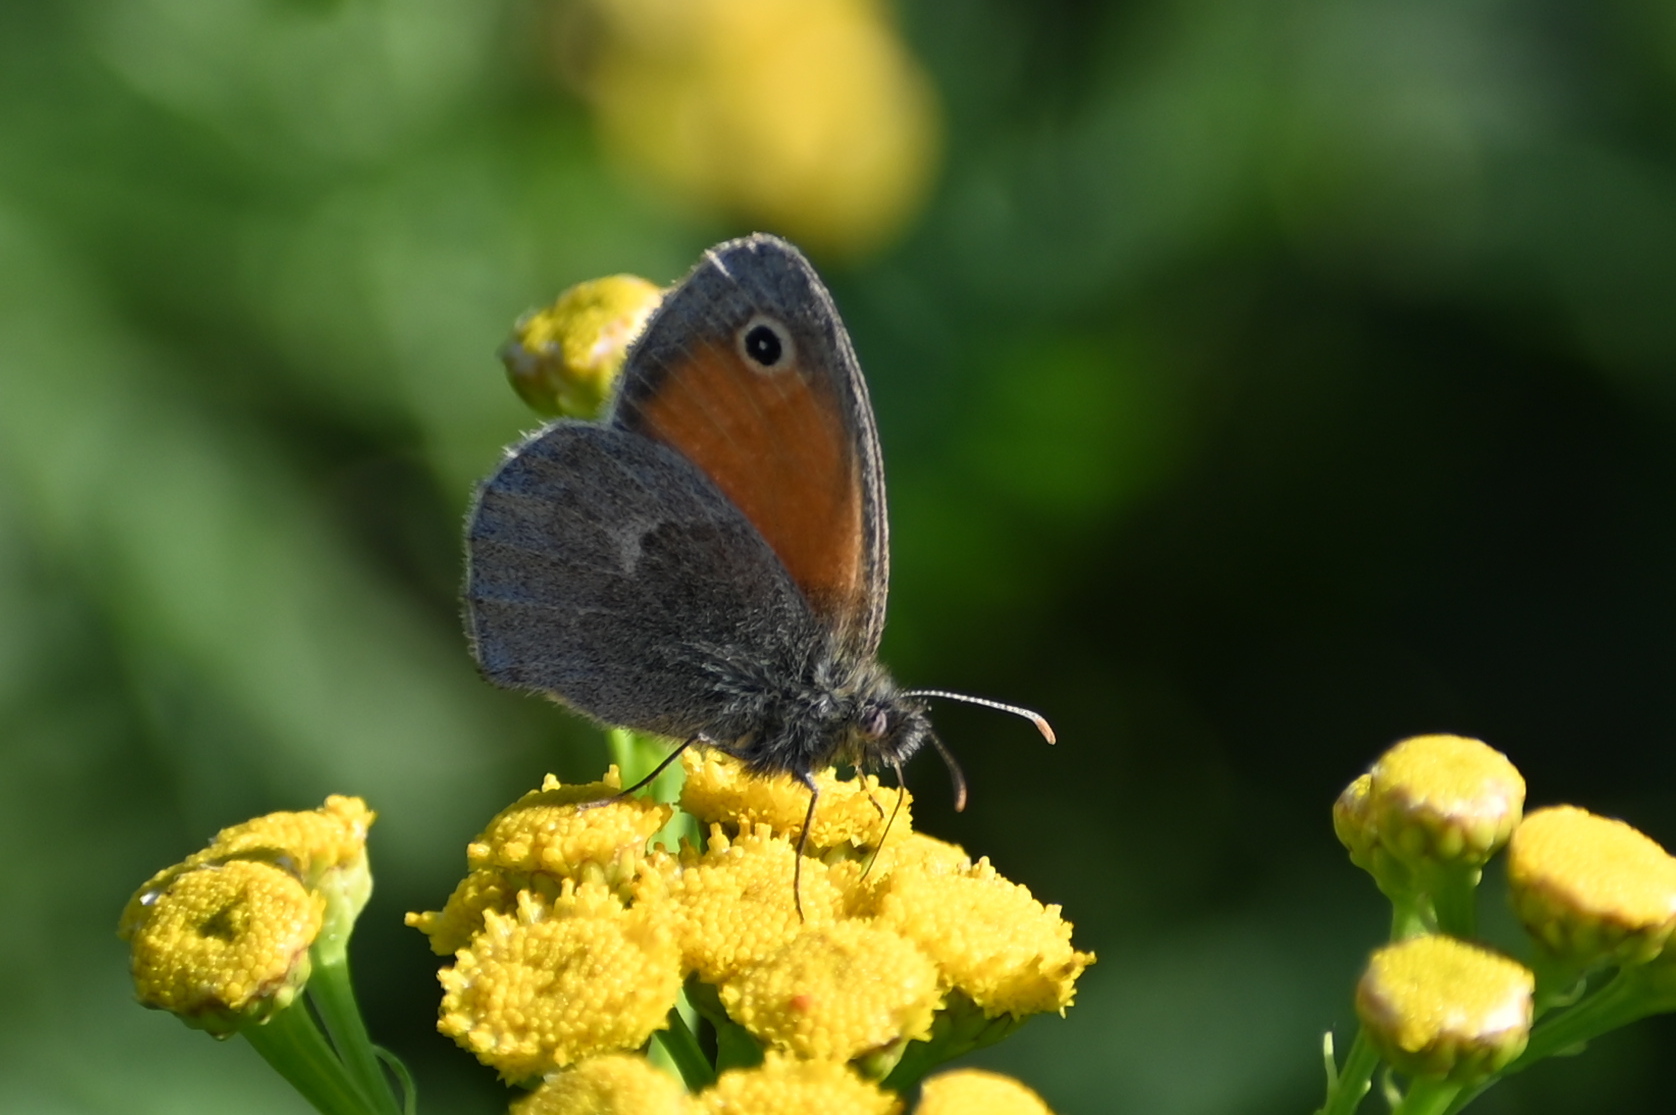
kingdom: Animalia
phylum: Arthropoda
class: Insecta
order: Lepidoptera
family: Nymphalidae
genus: Coenonympha
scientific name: Coenonympha pamphilus
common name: Small heath
